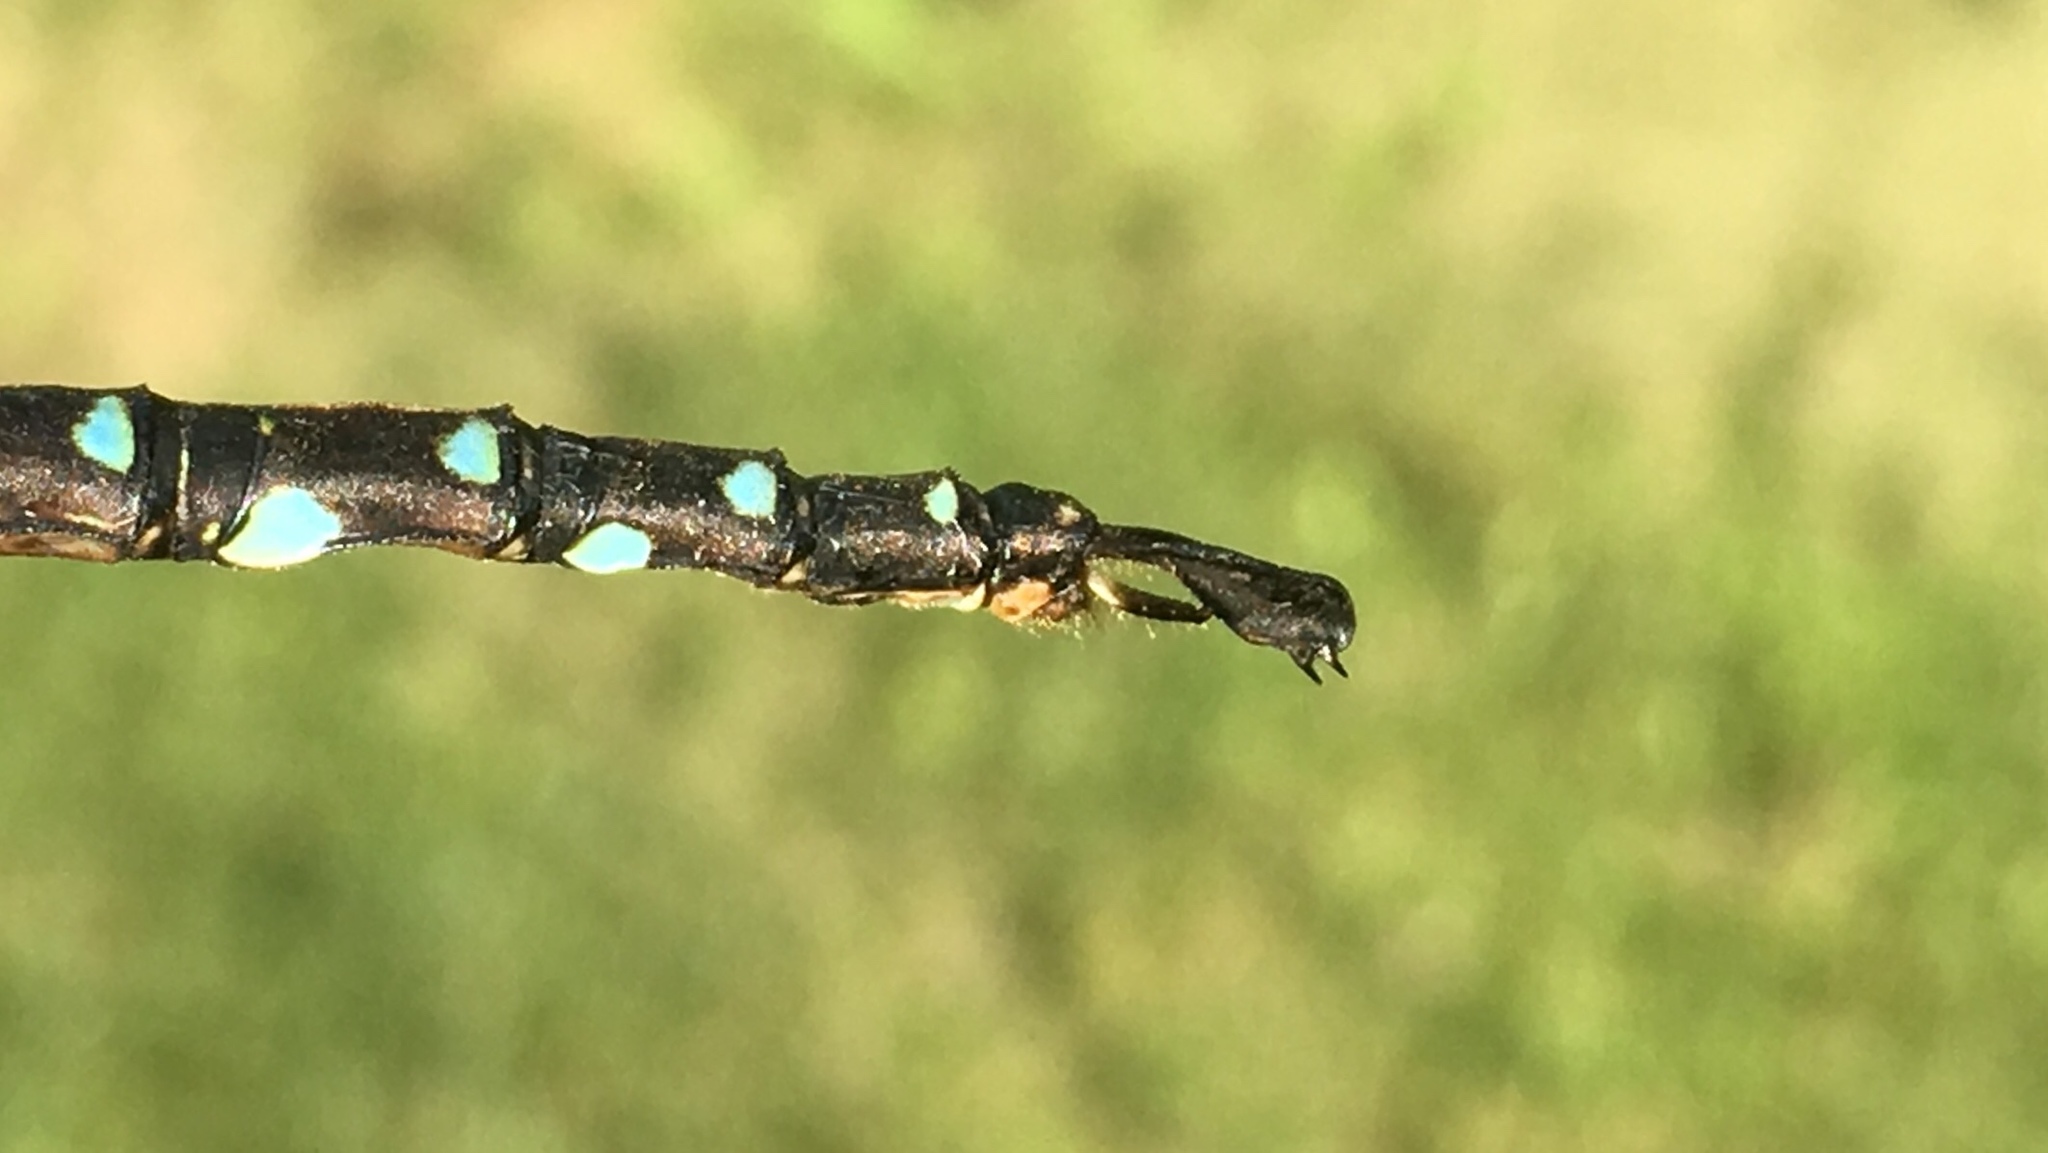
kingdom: Animalia
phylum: Arthropoda
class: Insecta
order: Odonata
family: Aeshnidae
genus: Aeshna
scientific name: Aeshna umbrosa
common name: Shadow darner
